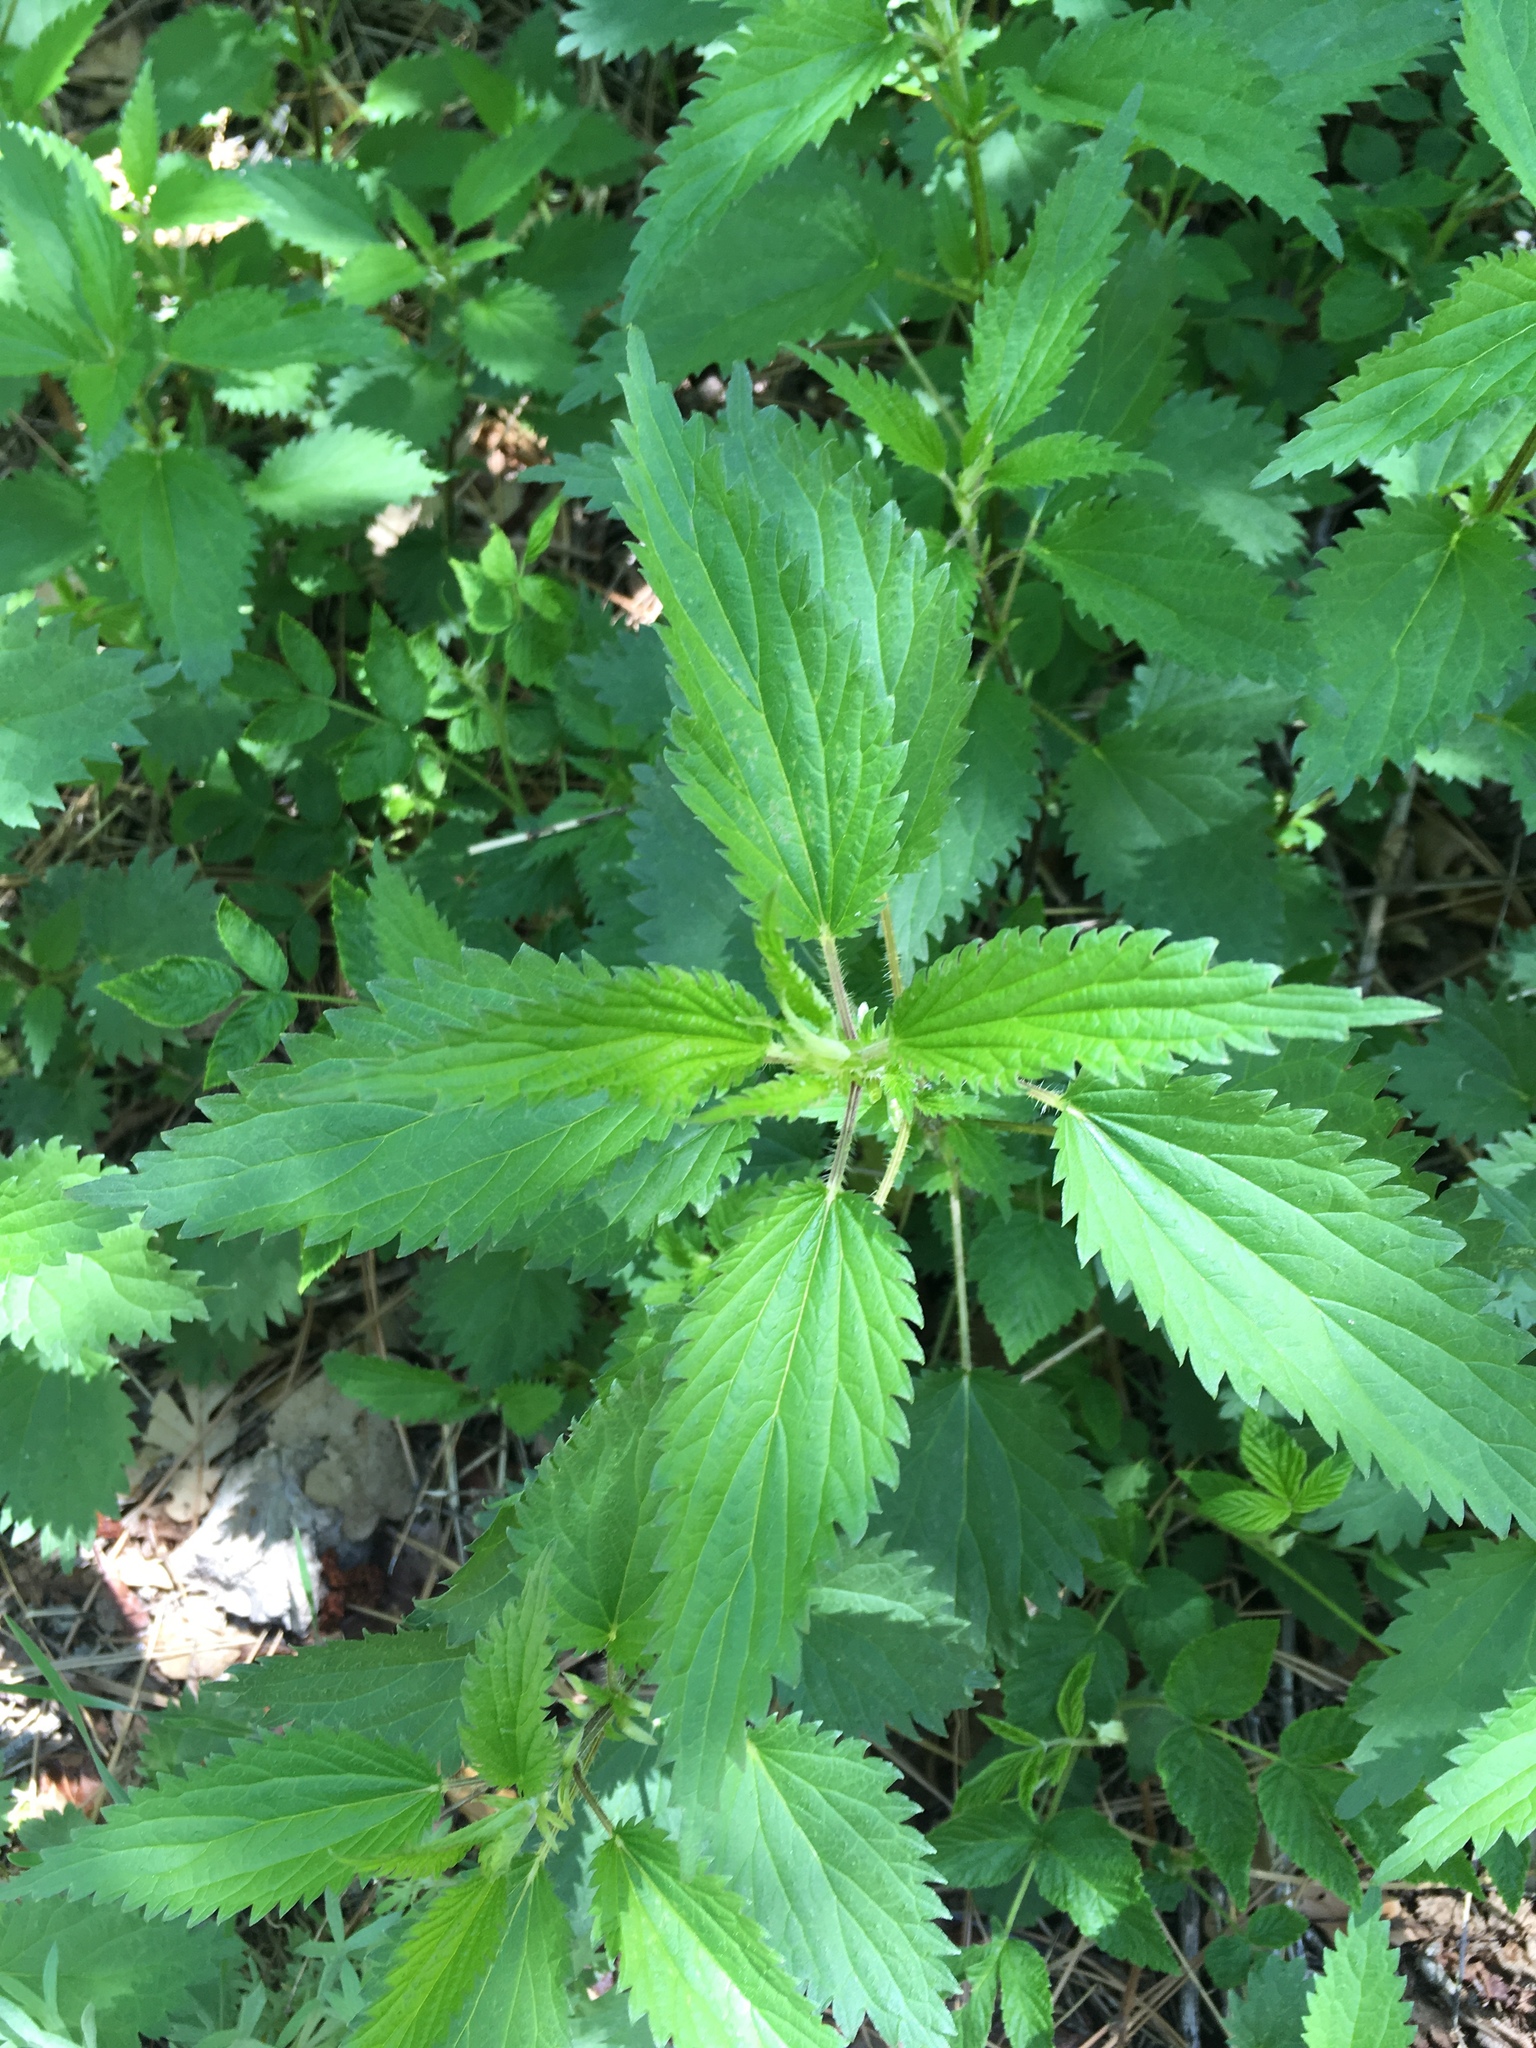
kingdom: Plantae
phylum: Tracheophyta
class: Magnoliopsida
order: Rosales
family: Urticaceae
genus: Urtica
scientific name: Urtica dioica
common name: Common nettle
